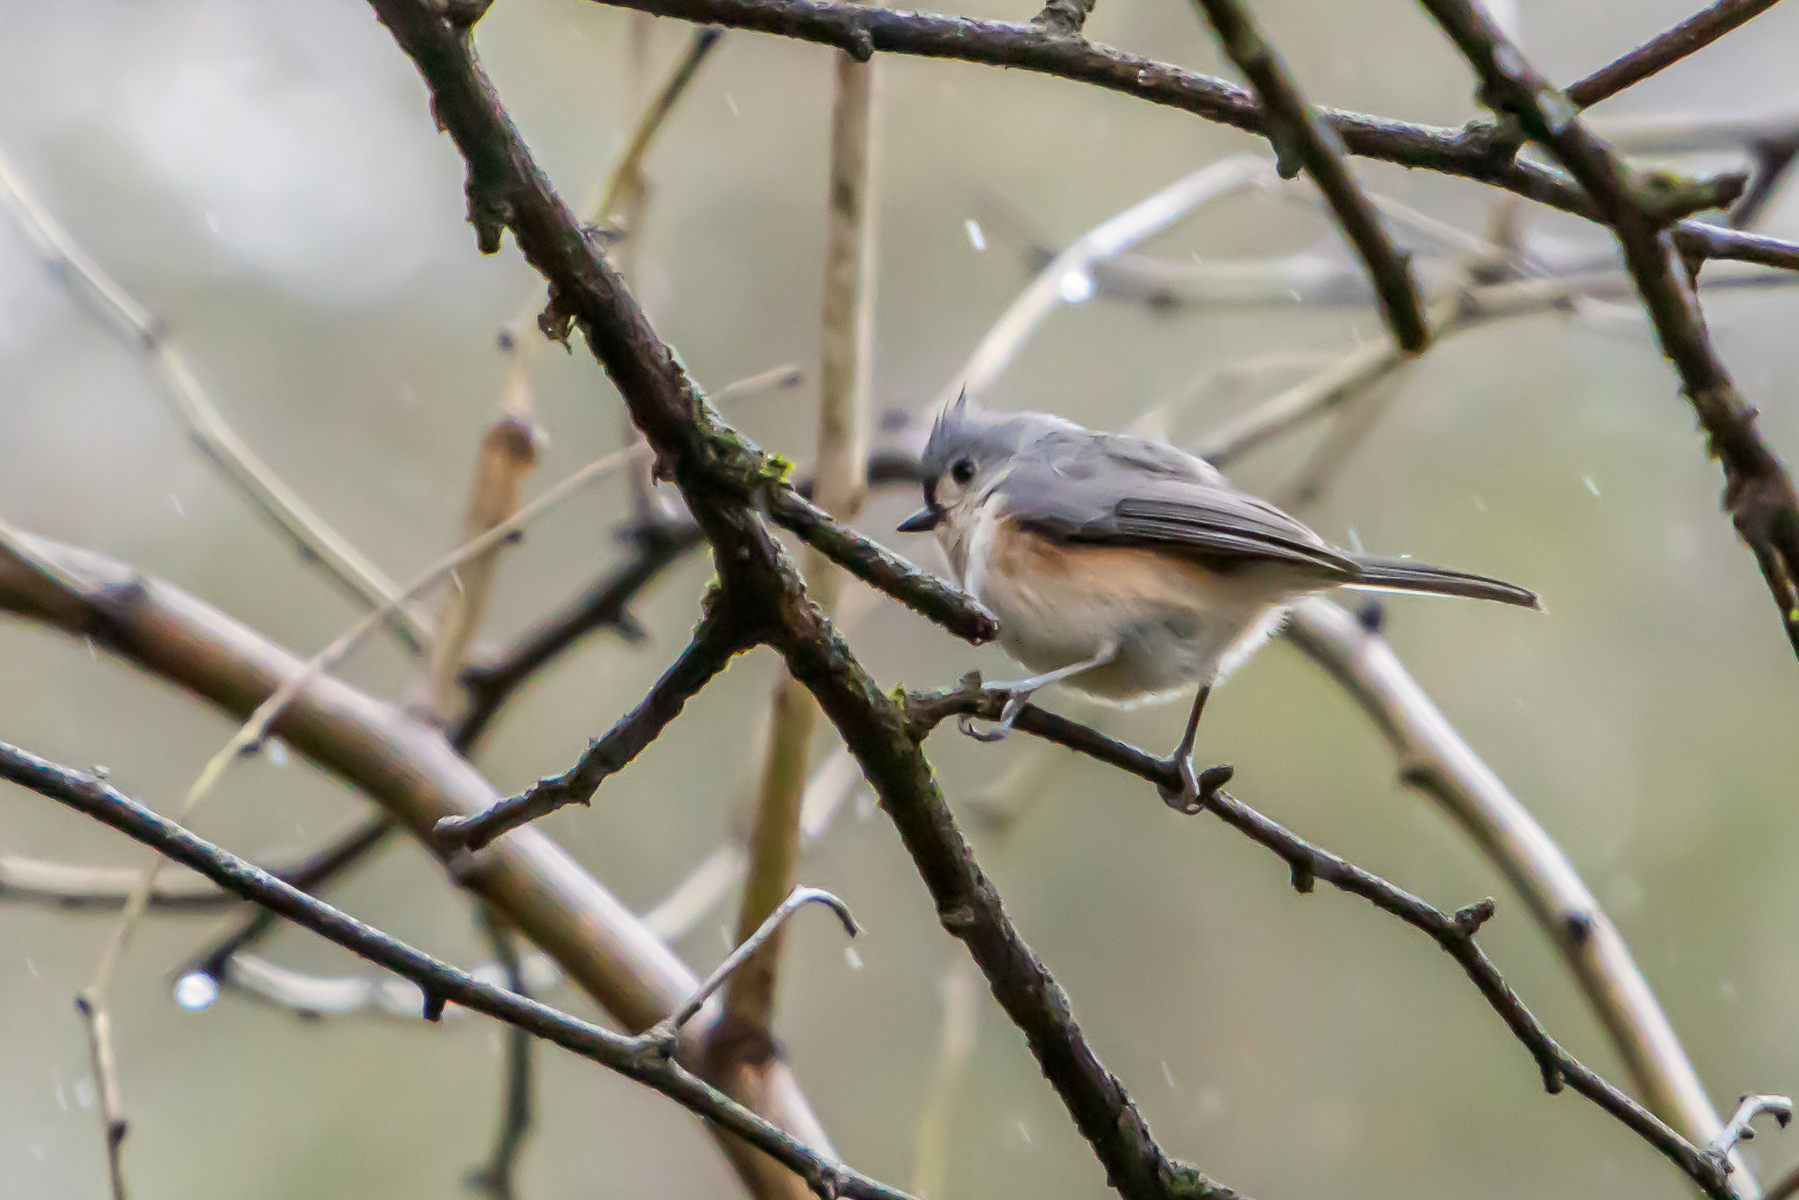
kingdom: Animalia
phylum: Chordata
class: Aves
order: Passeriformes
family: Paridae
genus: Baeolophus
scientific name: Baeolophus bicolor
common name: Tufted titmouse
